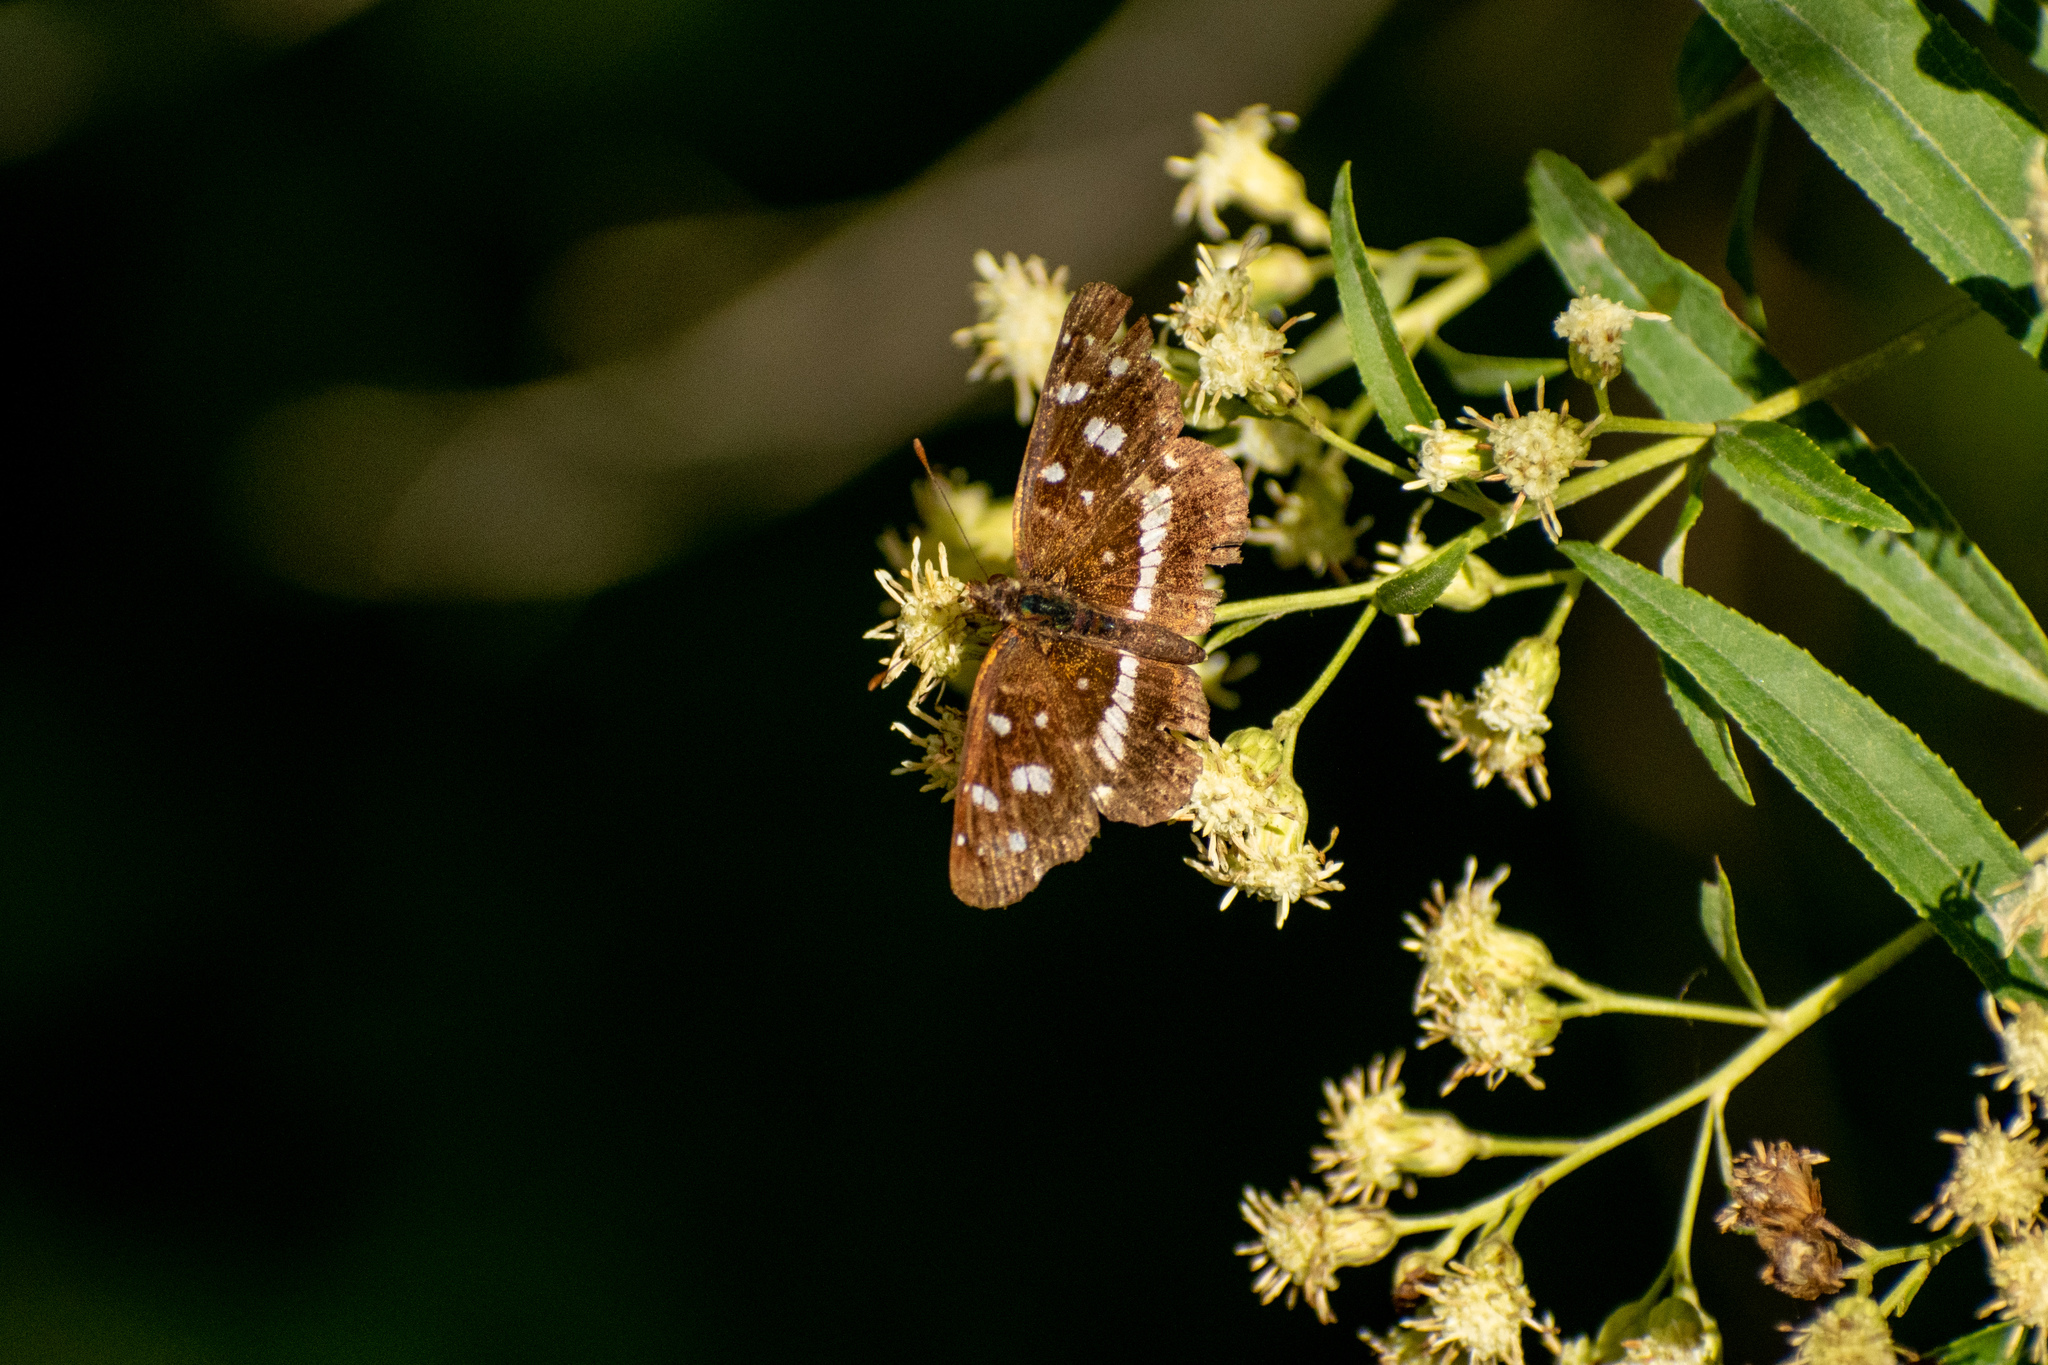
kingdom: Animalia
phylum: Arthropoda
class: Insecta
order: Lepidoptera
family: Nymphalidae
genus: Ortilia
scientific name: Ortilia ithra
